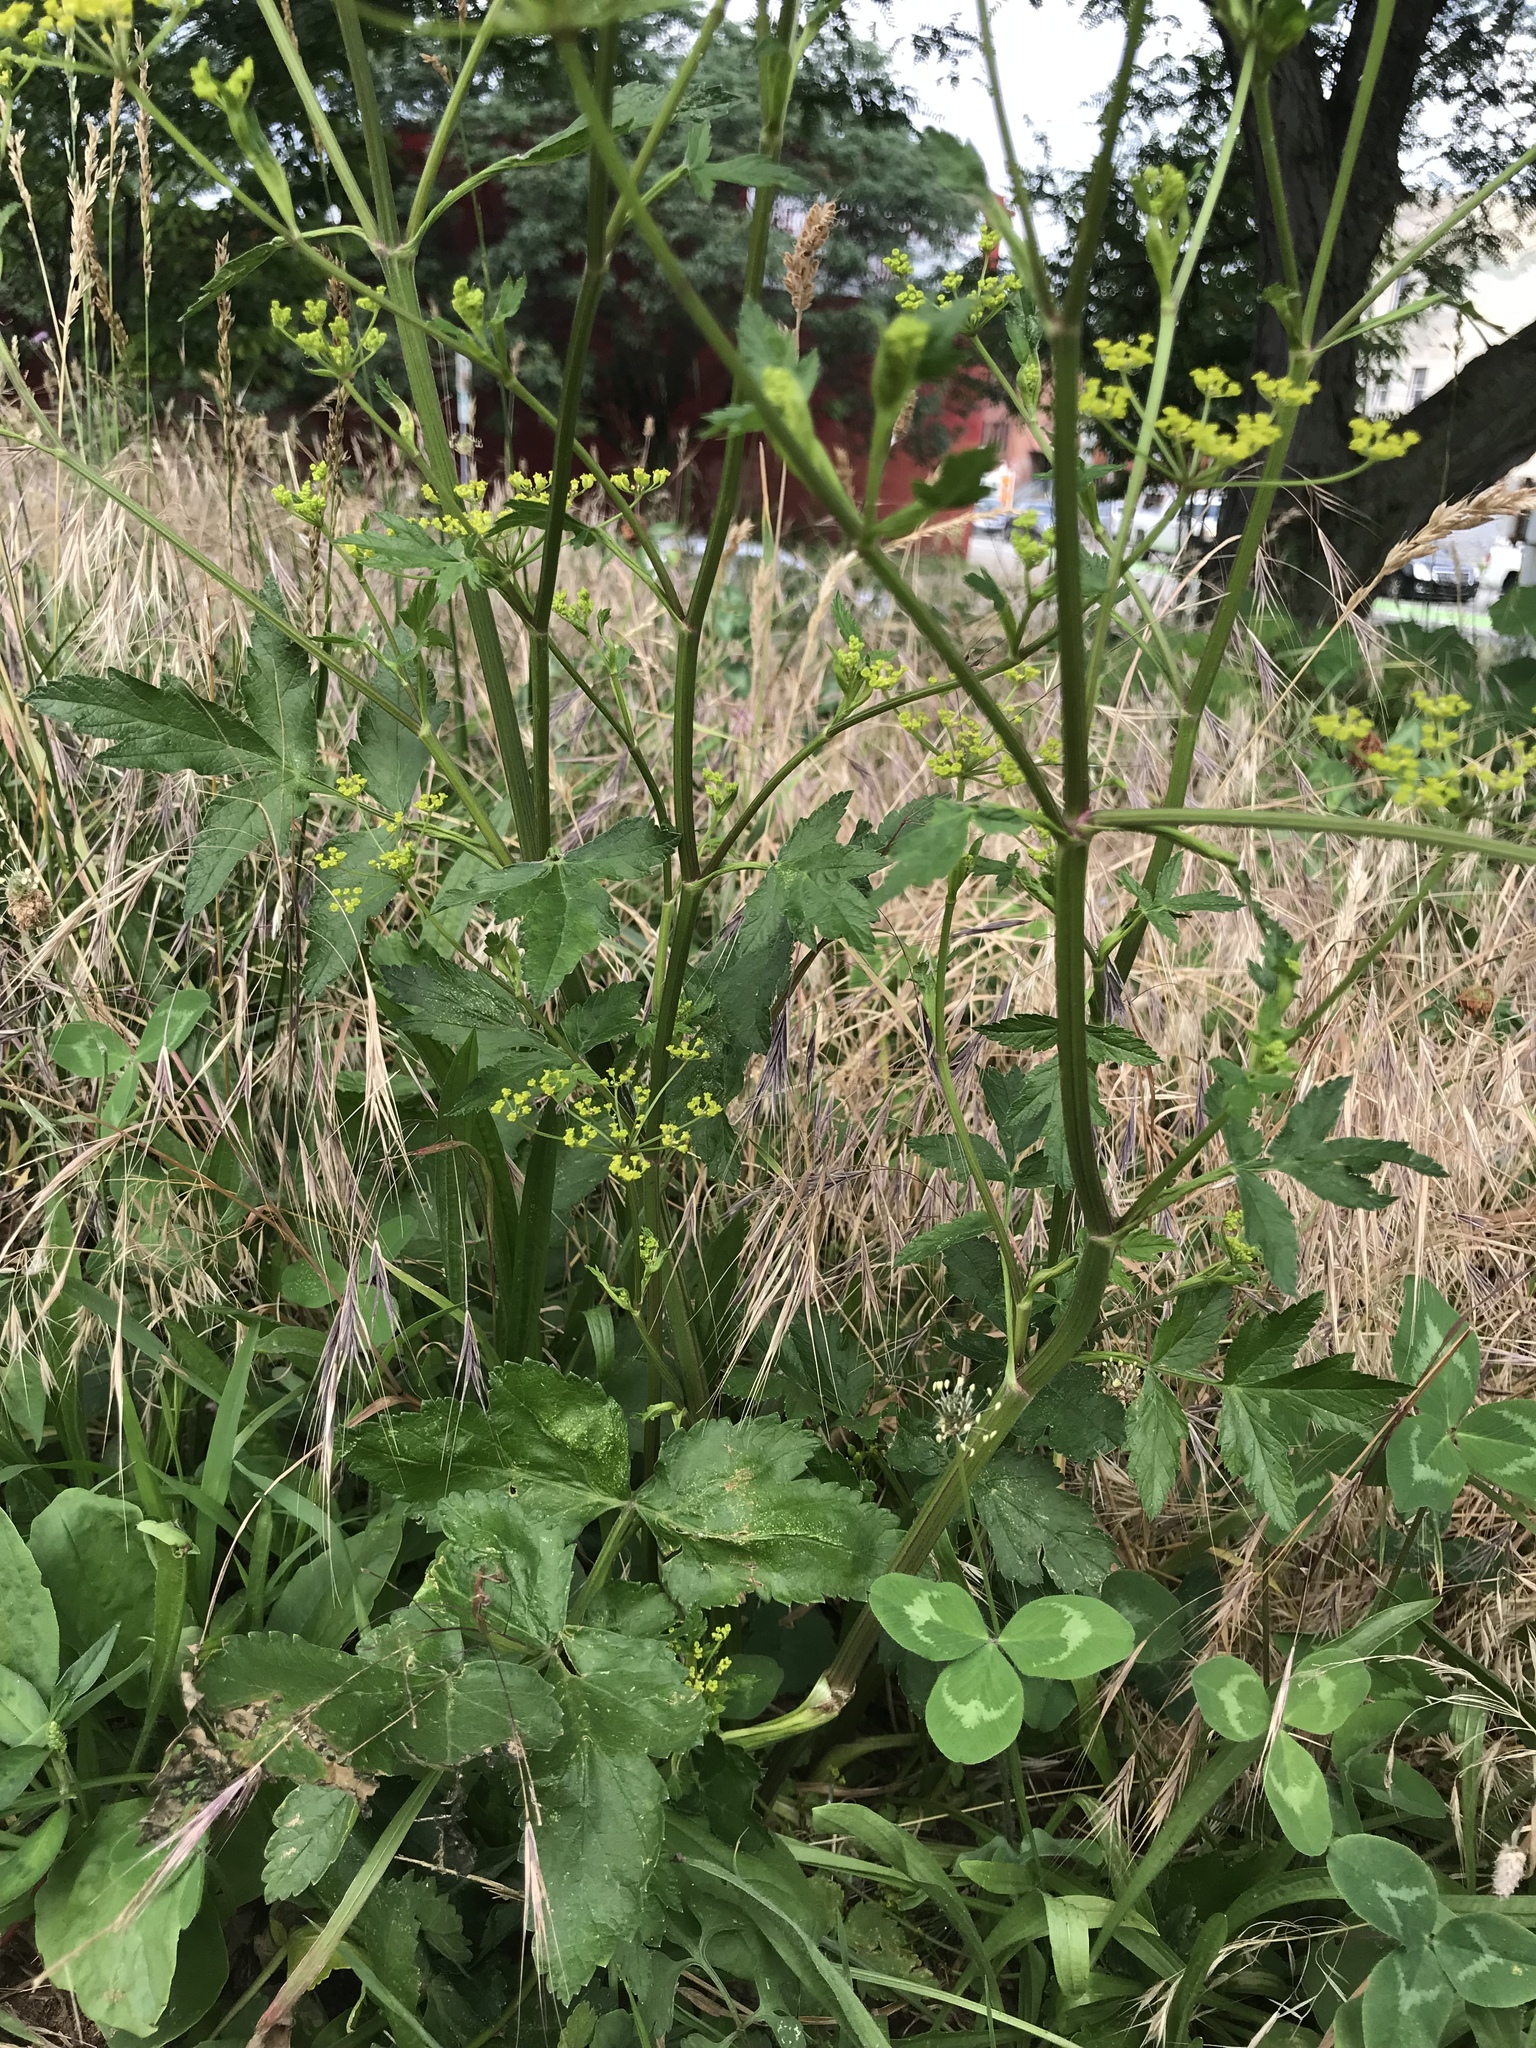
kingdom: Plantae
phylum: Tracheophyta
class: Magnoliopsida
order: Apiales
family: Apiaceae
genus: Pastinaca
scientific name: Pastinaca sativa
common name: Wild parsnip
